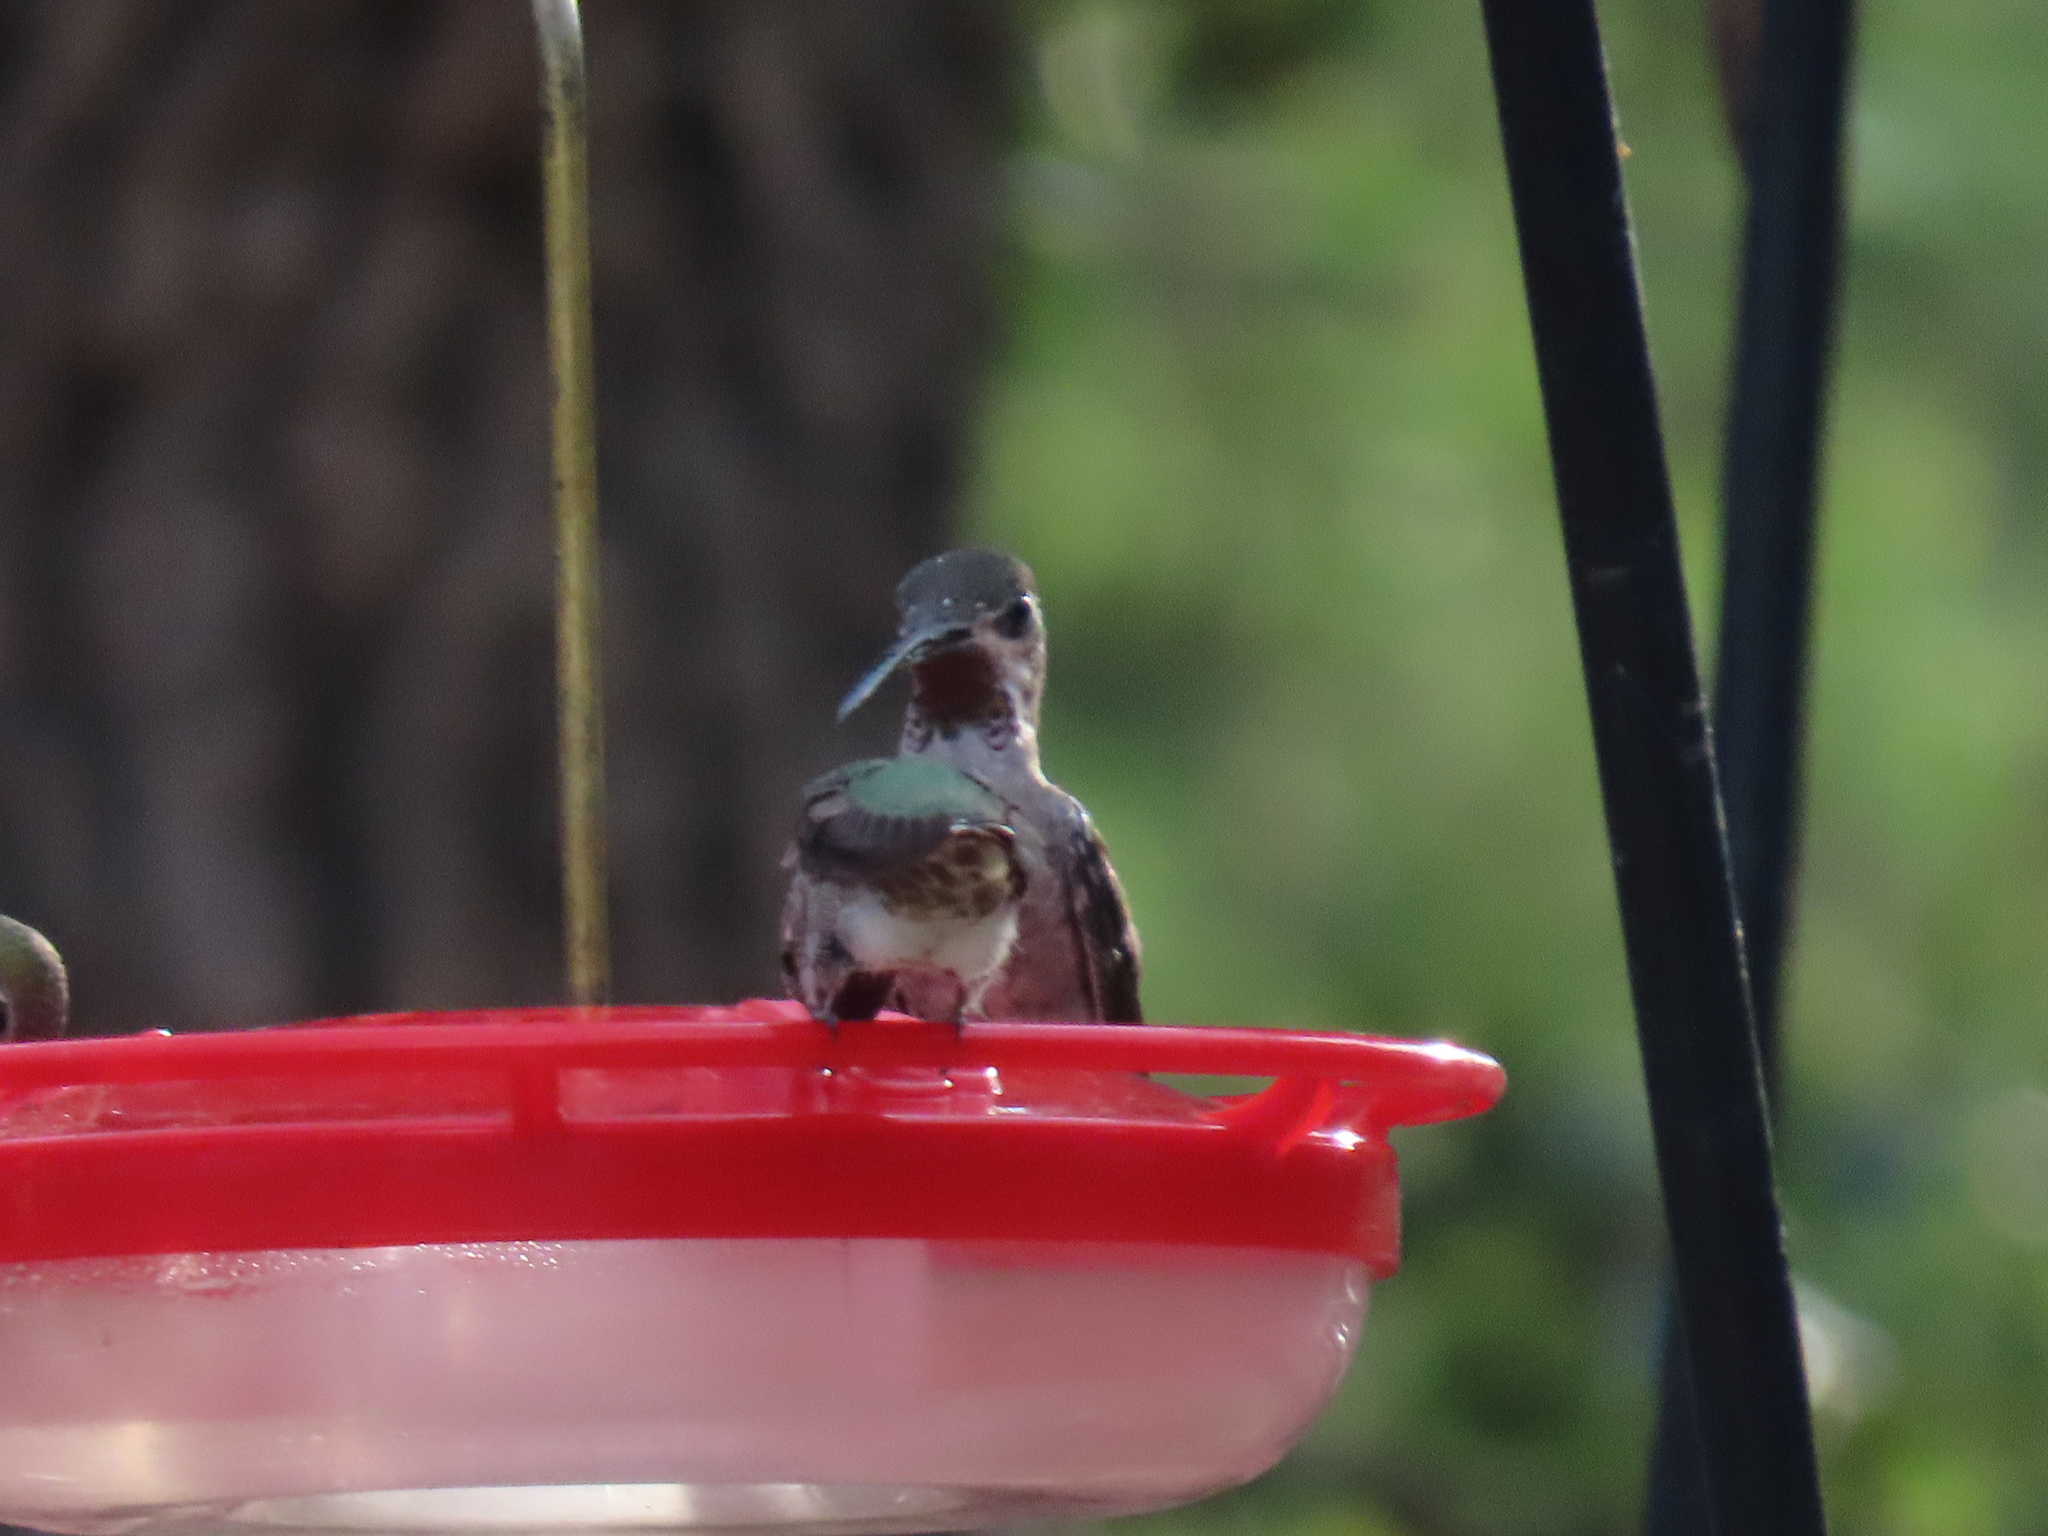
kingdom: Animalia
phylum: Chordata
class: Aves
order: Apodiformes
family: Trochilidae
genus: Heliomaster
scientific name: Heliomaster constantii
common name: Plain-capped starthroat
